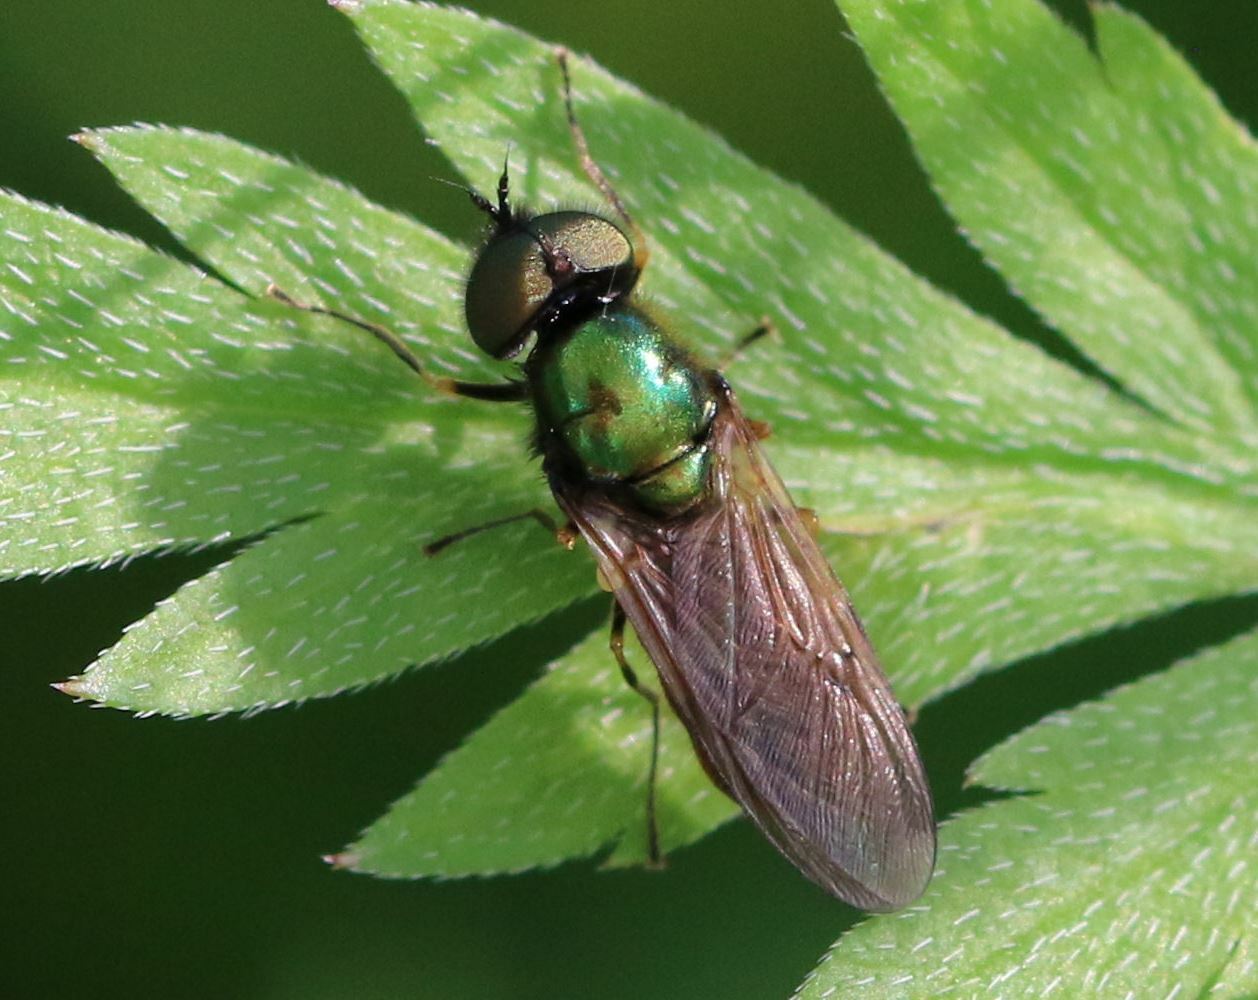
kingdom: Animalia
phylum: Arthropoda
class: Insecta
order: Diptera
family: Stratiomyidae
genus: Chloromyia
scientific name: Chloromyia formosa
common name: Soldier fly
